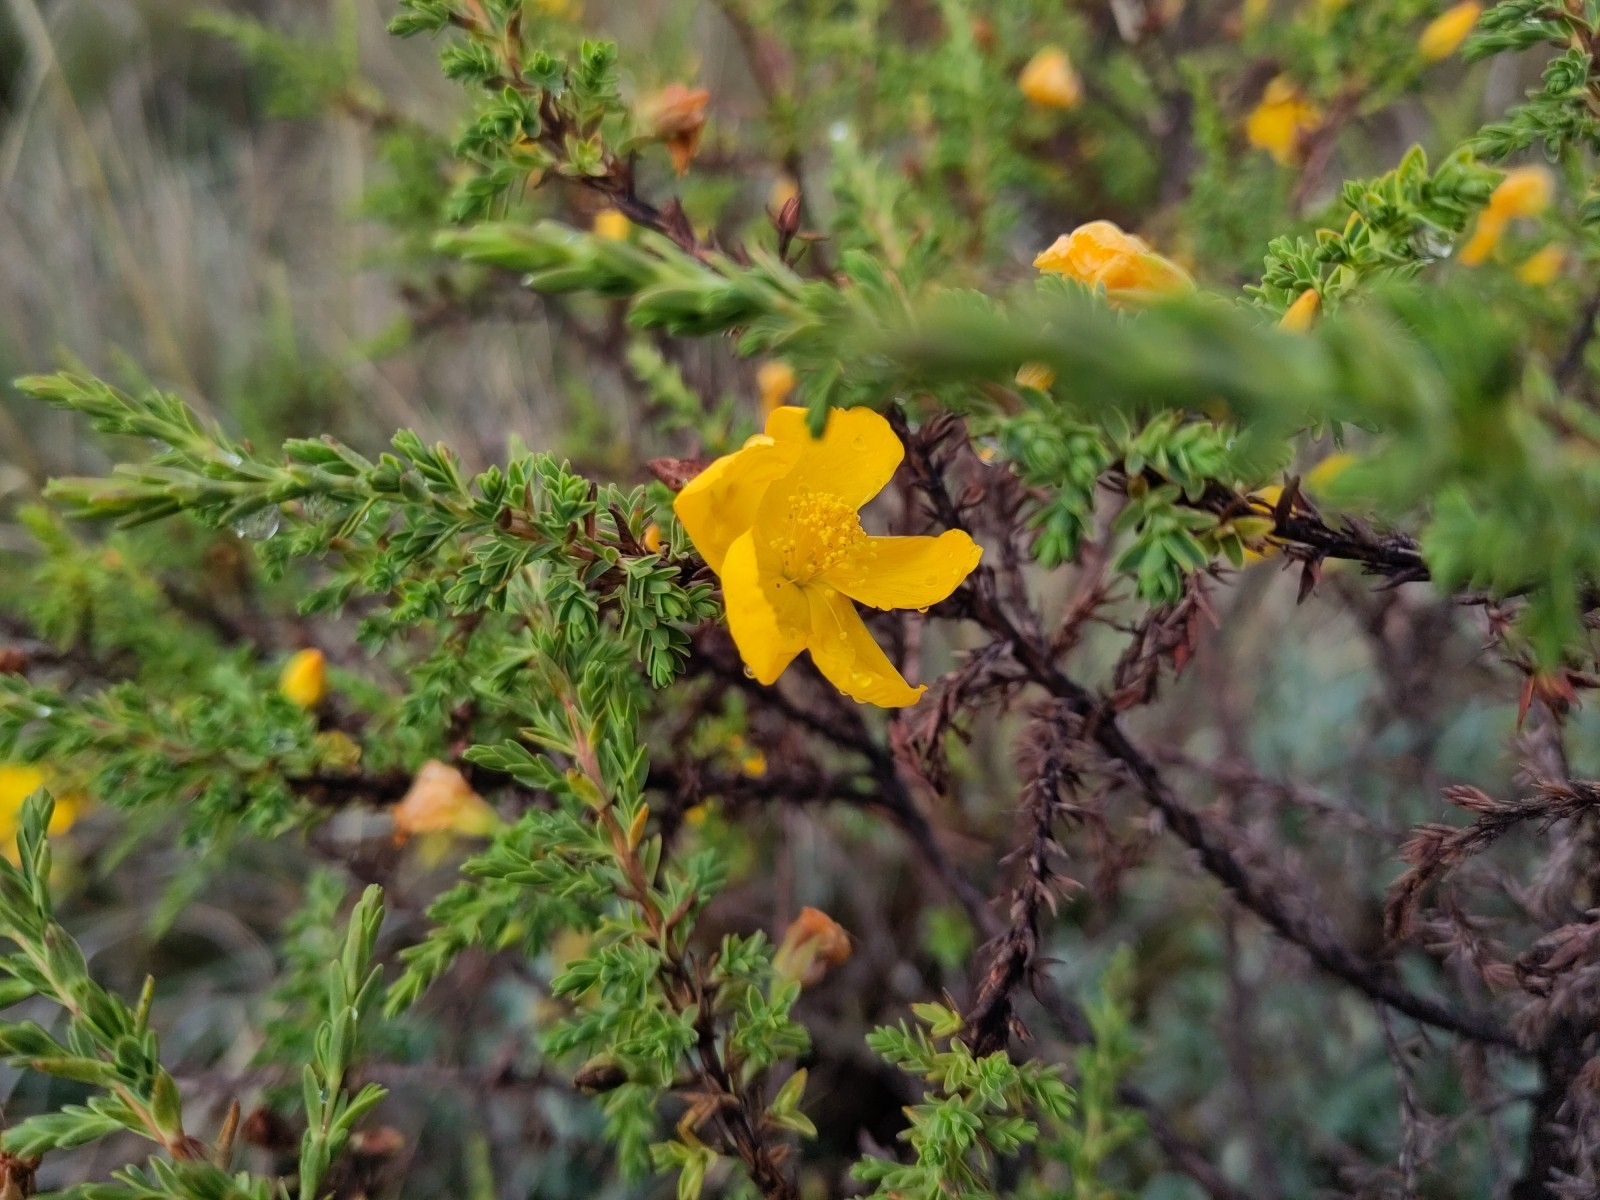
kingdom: Plantae
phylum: Tracheophyta
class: Magnoliopsida
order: Malpighiales
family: Hypericaceae
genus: Hypericum
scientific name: Hypericum laricifolium
